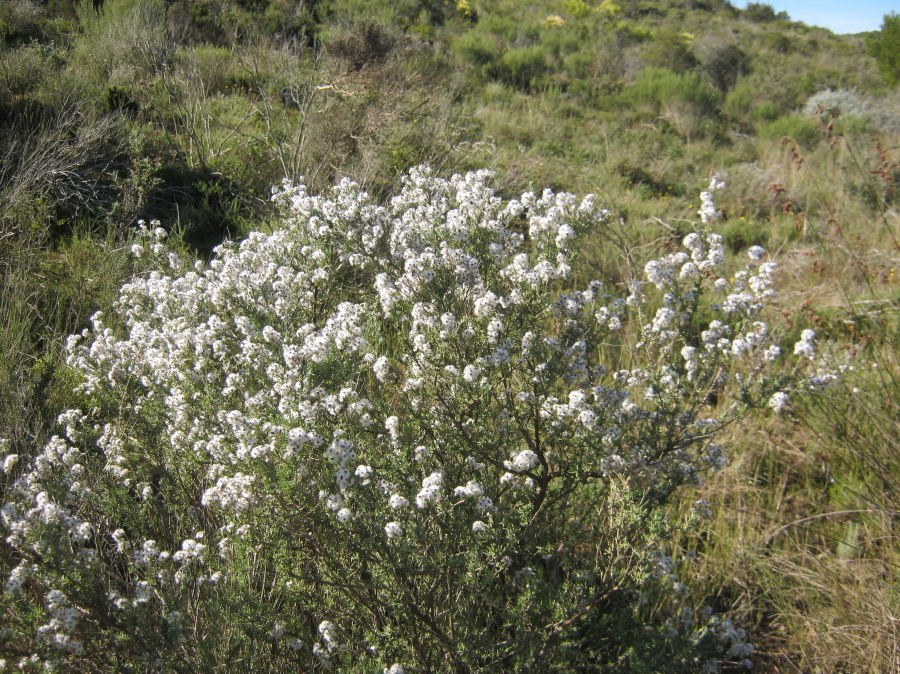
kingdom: Plantae
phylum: Tracheophyta
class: Magnoliopsida
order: Asterales
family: Asteraceae
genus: Eriocephalus
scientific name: Eriocephalus africanus
